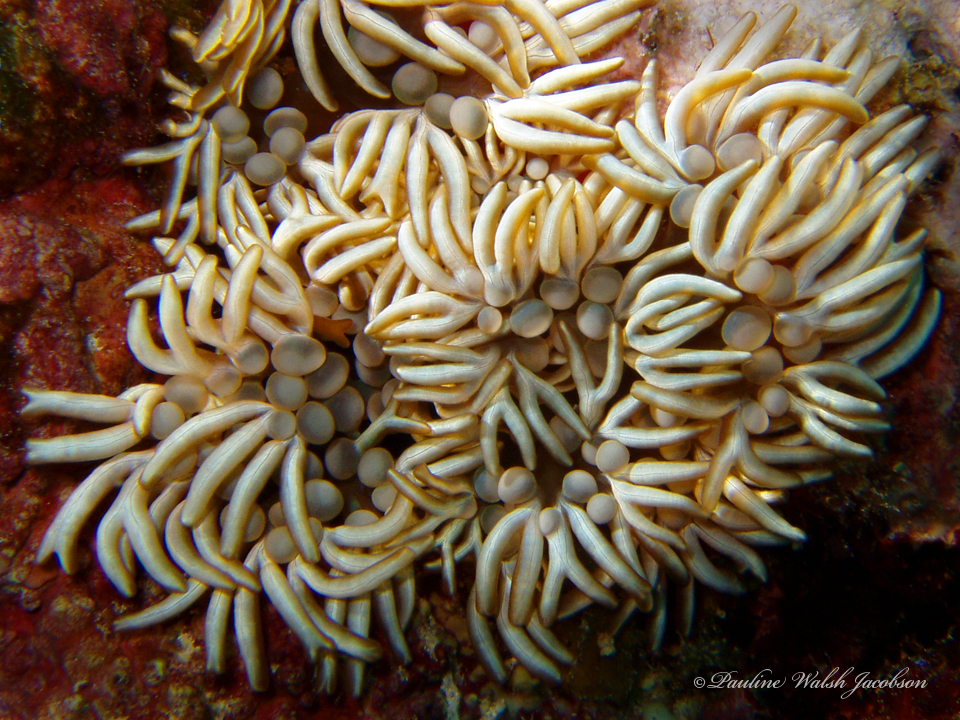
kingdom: Animalia
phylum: Cnidaria
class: Anthozoa
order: Actiniaria
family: Aliciidae
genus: Lebrunia
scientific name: Lebrunia neglecta
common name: Branching anemone
